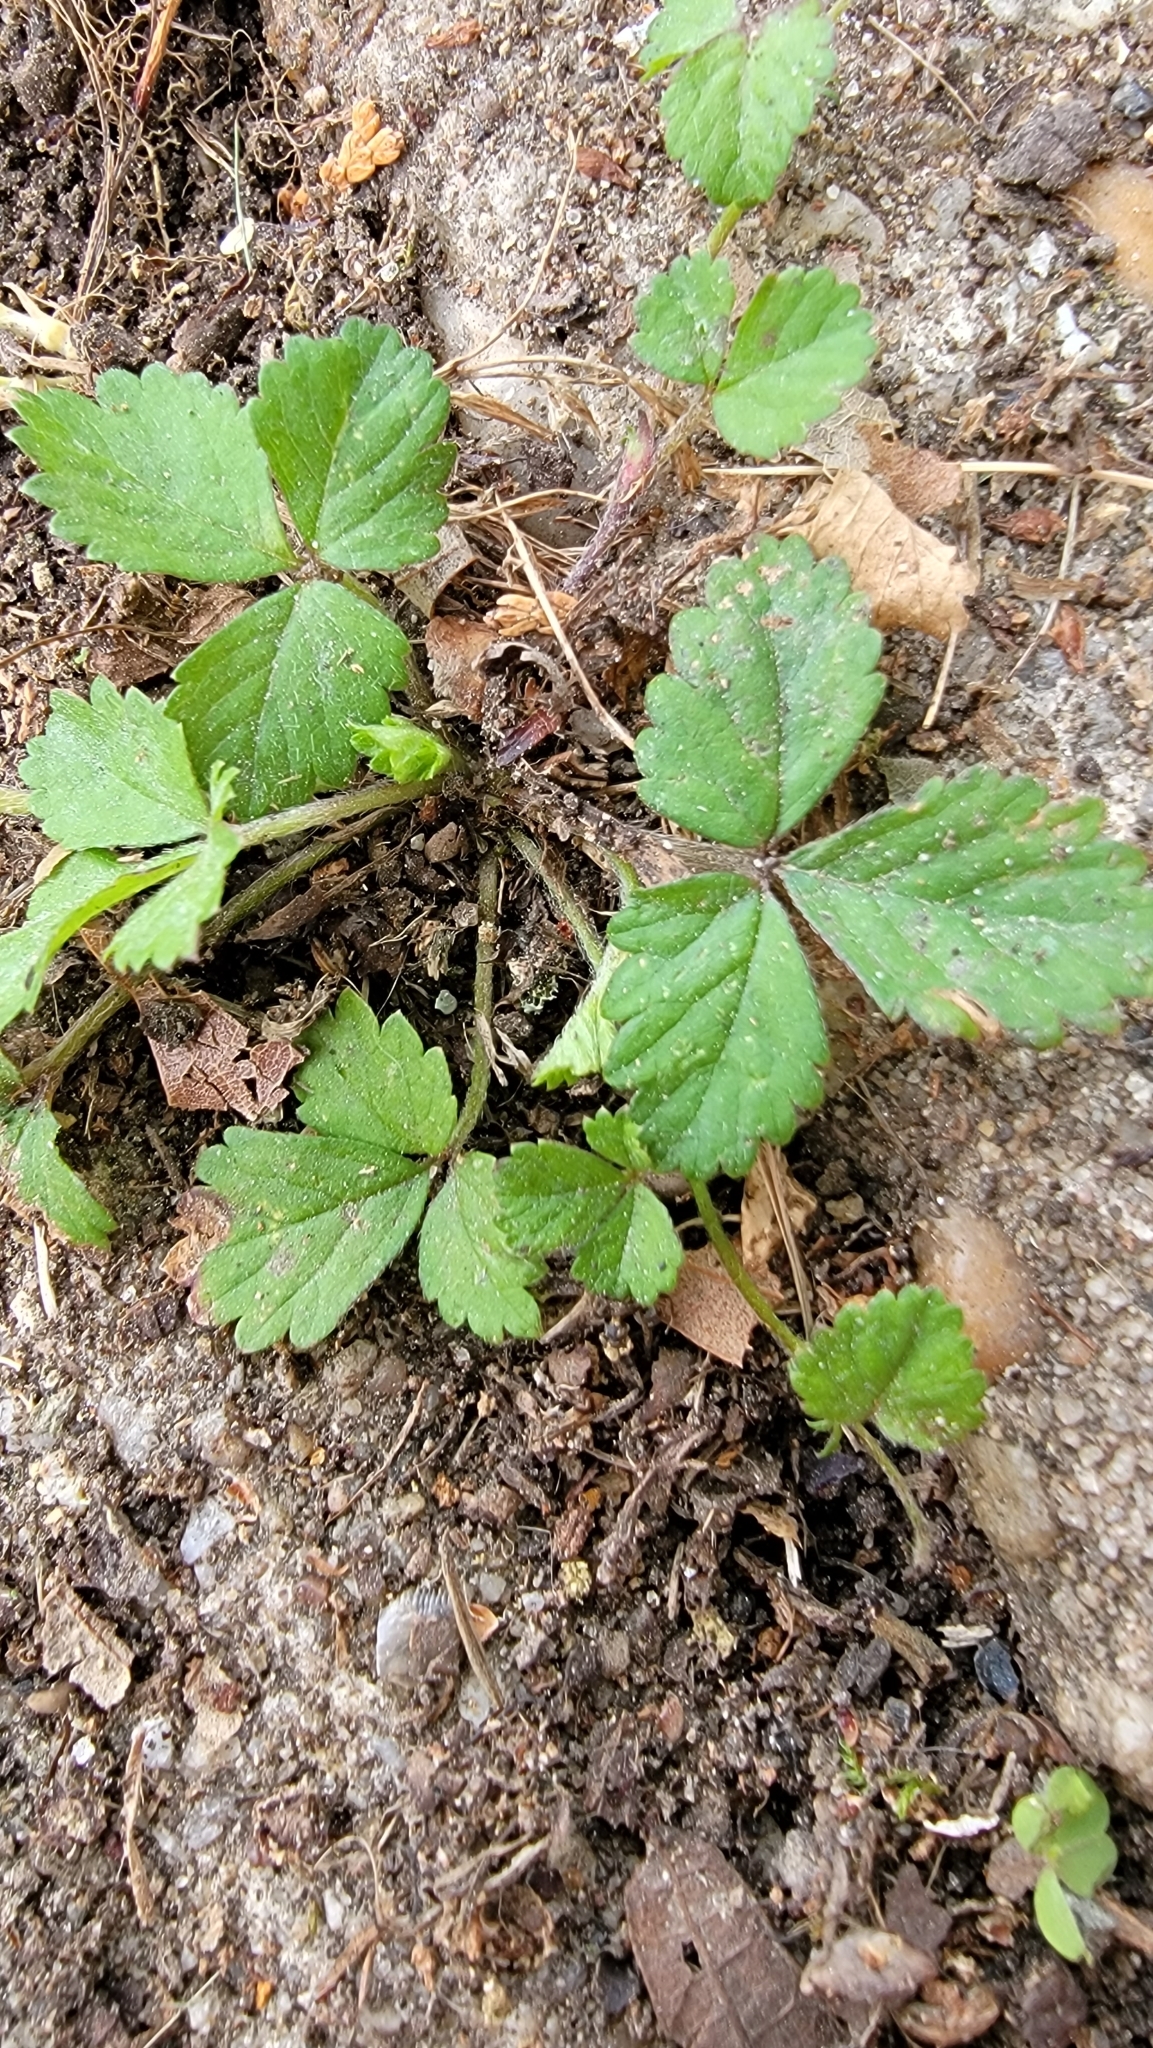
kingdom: Plantae
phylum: Tracheophyta
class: Magnoliopsida
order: Rosales
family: Rosaceae
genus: Potentilla
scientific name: Potentilla indica
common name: Yellow-flowered strawberry
